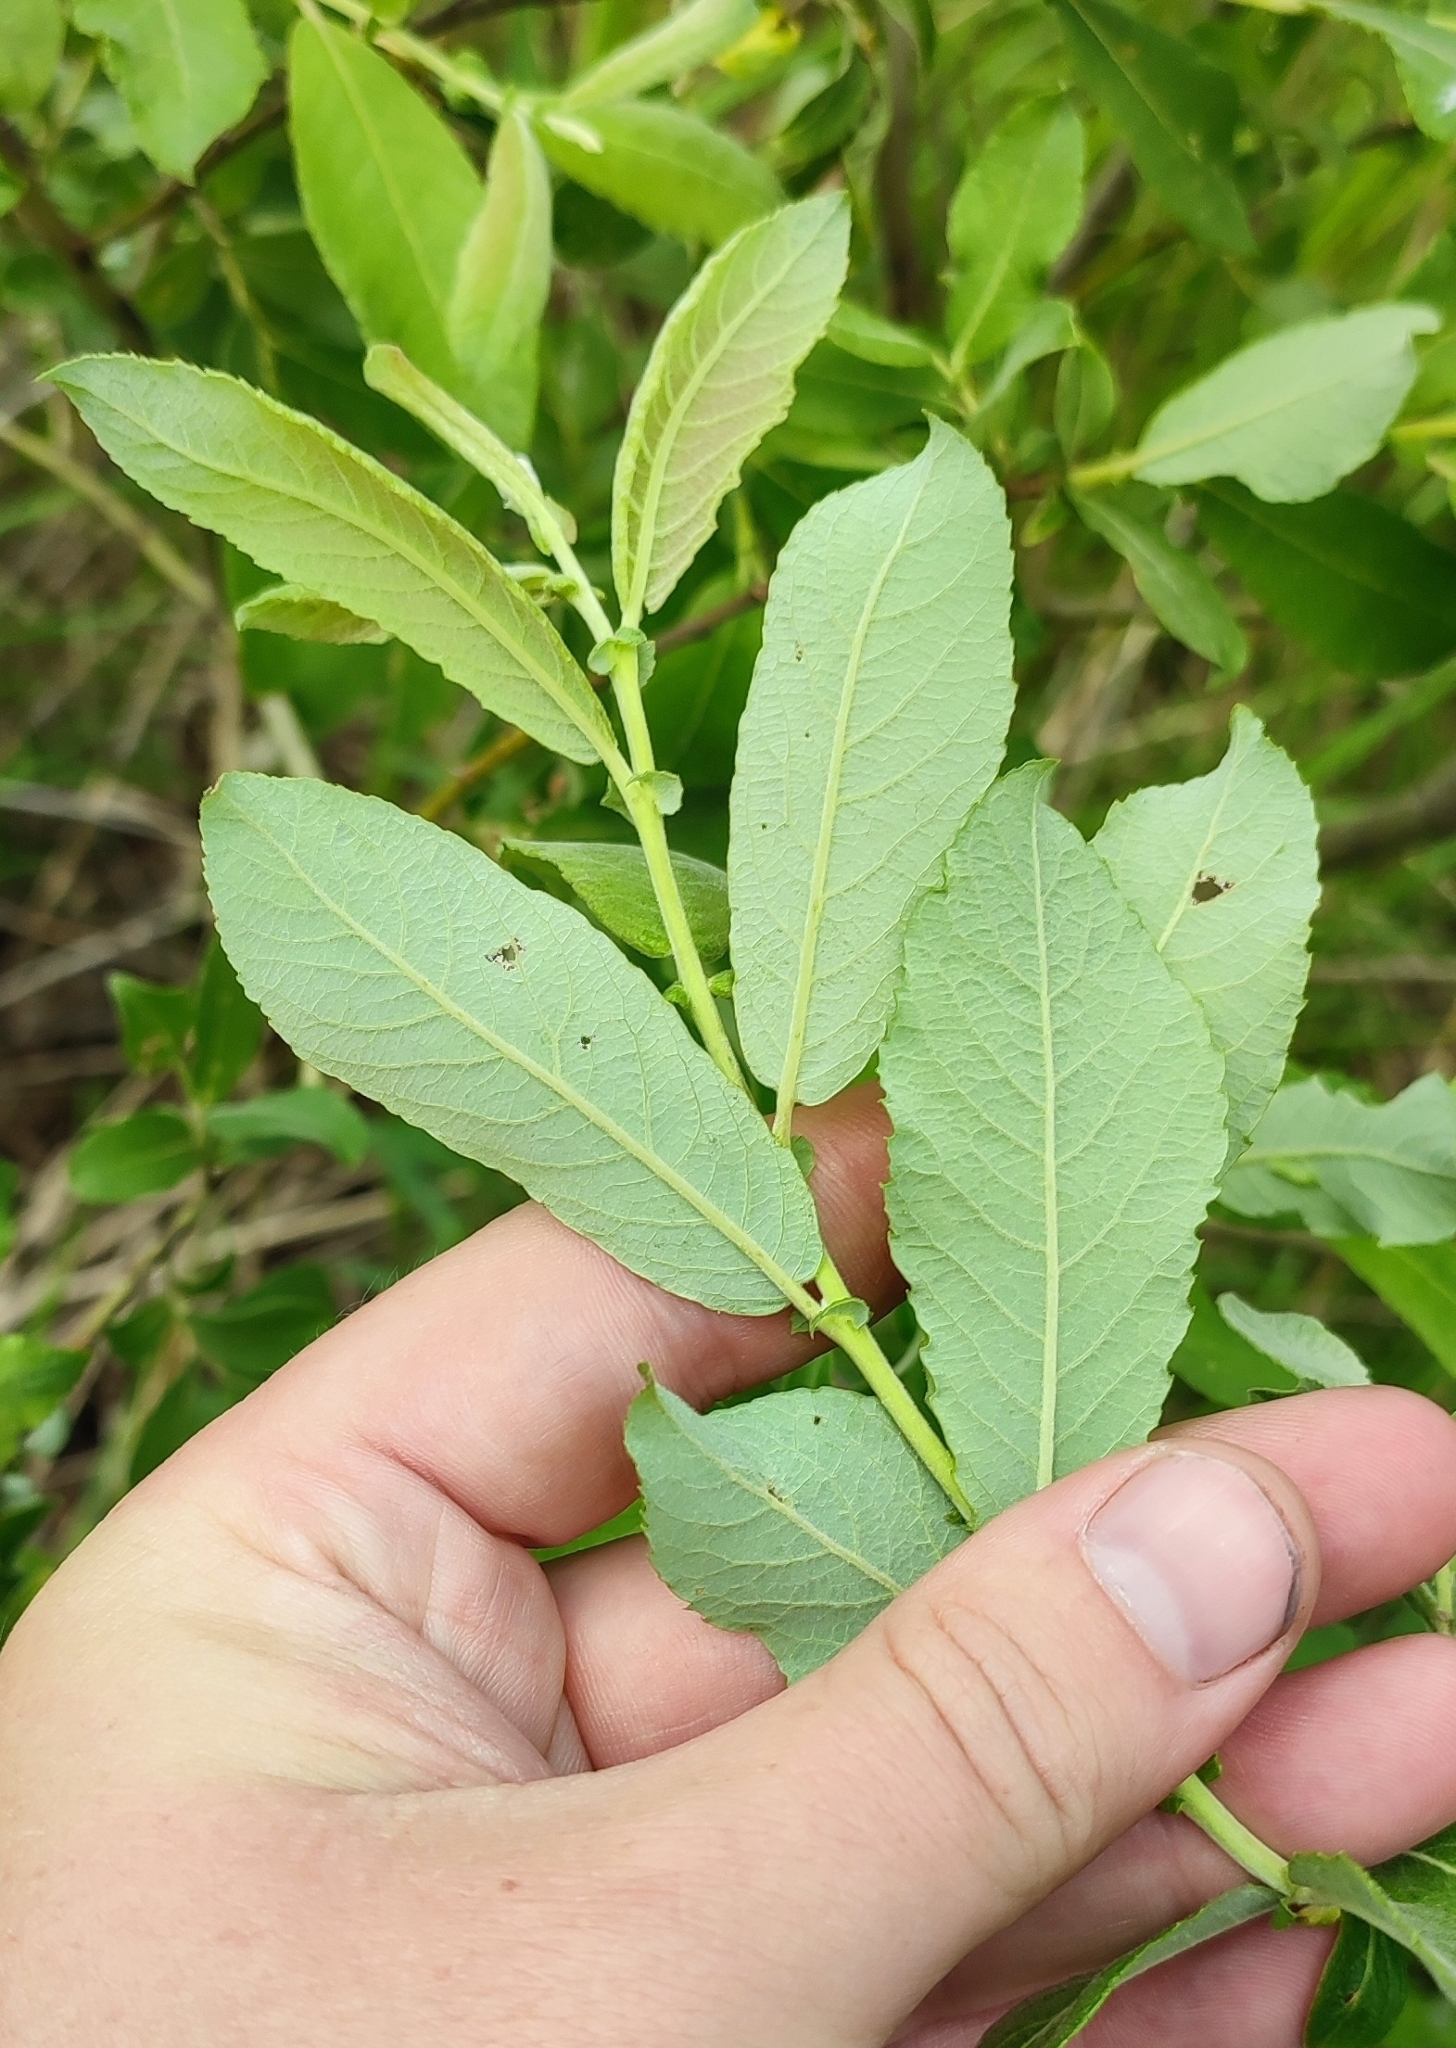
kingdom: Plantae
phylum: Tracheophyta
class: Magnoliopsida
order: Malpighiales
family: Salicaceae
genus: Salix
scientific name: Salix cinerea
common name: Common sallow
